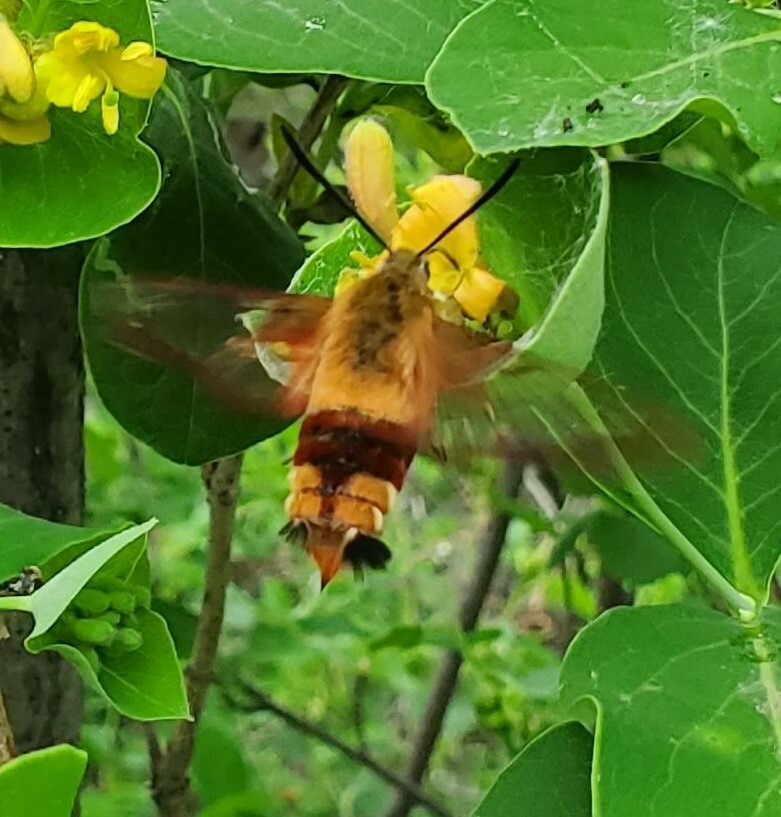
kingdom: Animalia
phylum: Arthropoda
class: Insecta
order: Lepidoptera
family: Sphingidae
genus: Hemaris
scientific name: Hemaris thysbe
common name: Common clear-wing
